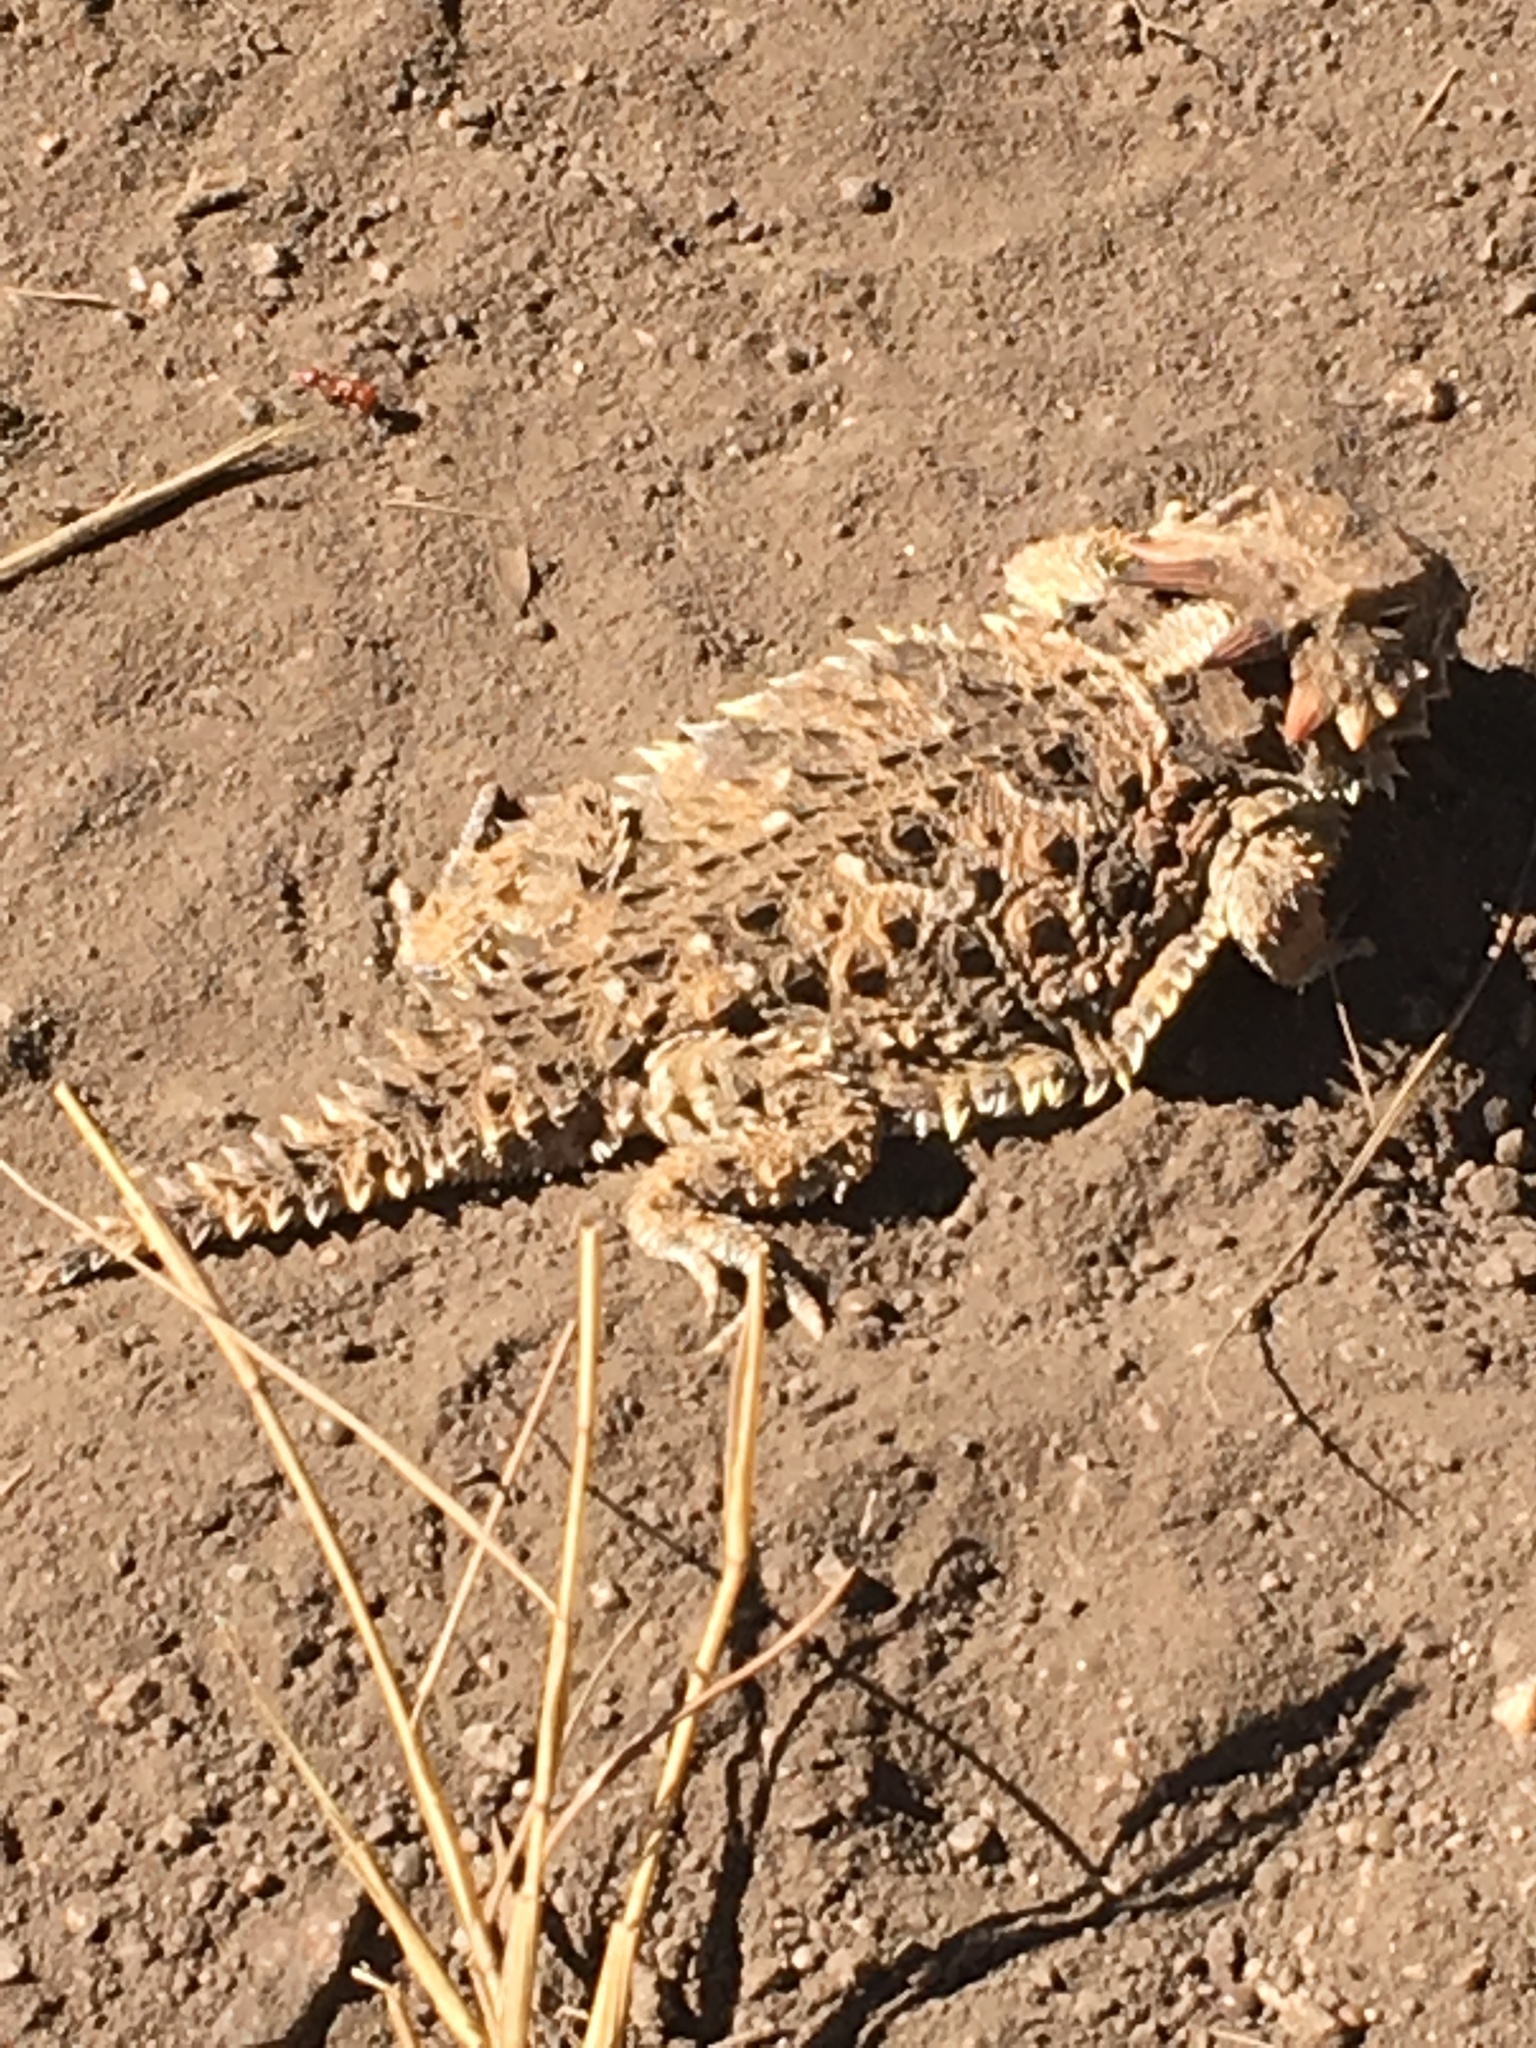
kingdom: Animalia
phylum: Chordata
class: Squamata
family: Phrynosomatidae
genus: Phrynosoma
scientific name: Phrynosoma blainvillii
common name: San diego horned lizard
